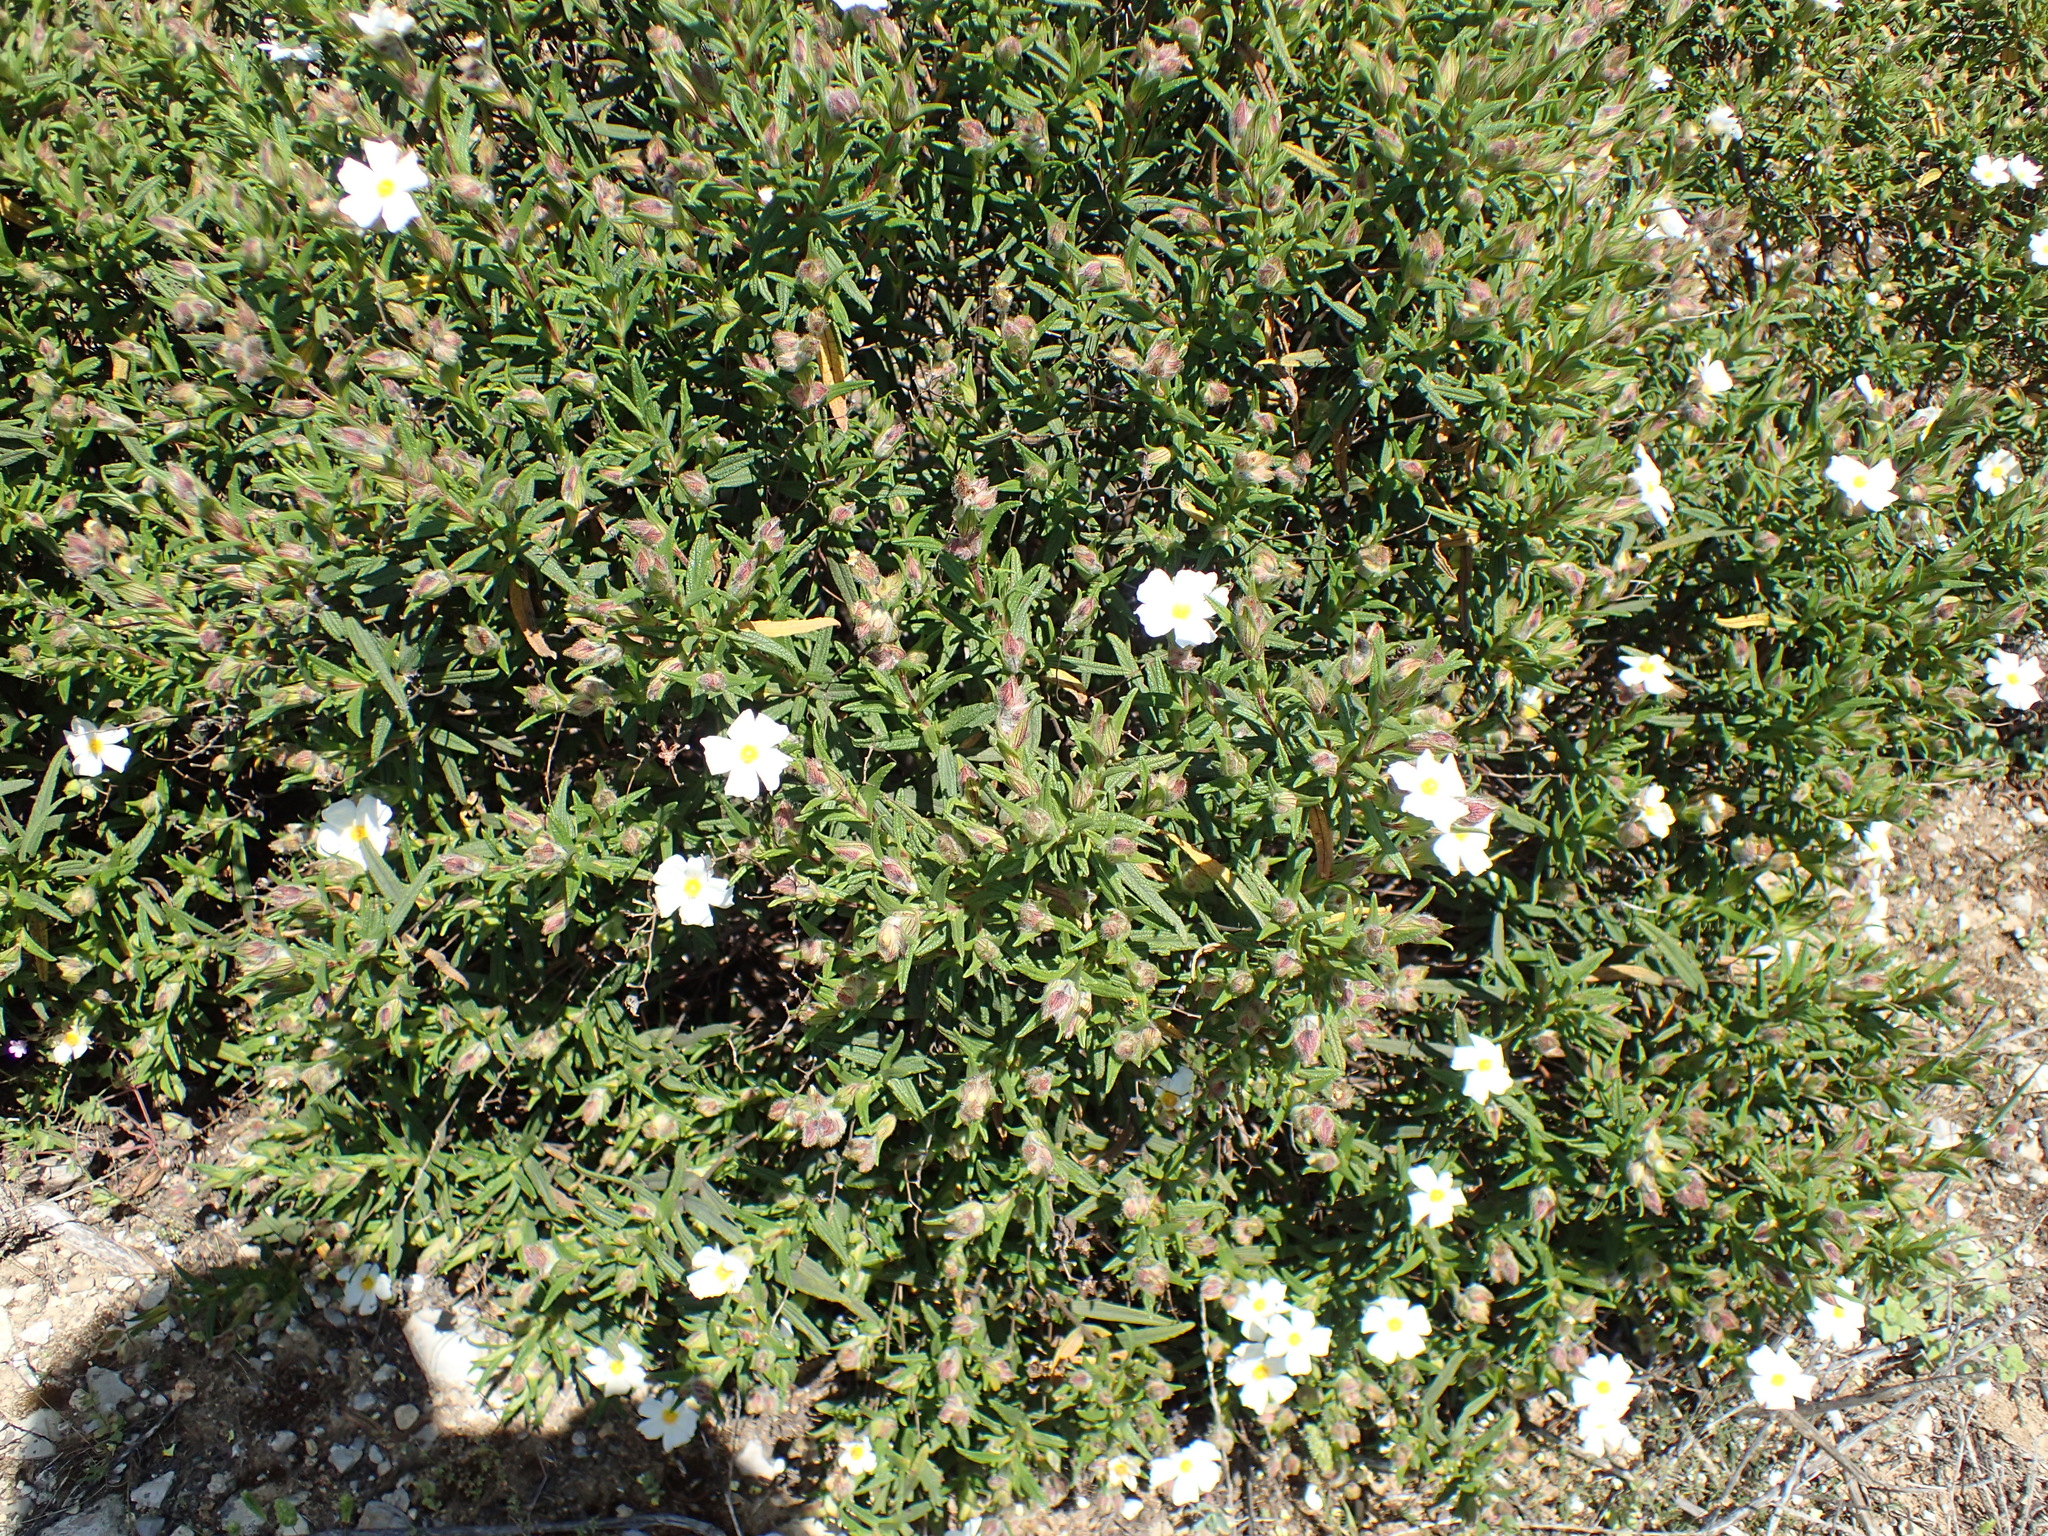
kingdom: Plantae
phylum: Tracheophyta
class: Magnoliopsida
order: Malvales
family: Cistaceae
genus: Cistus
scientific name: Cistus monspeliensis
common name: Montpelier cistus
